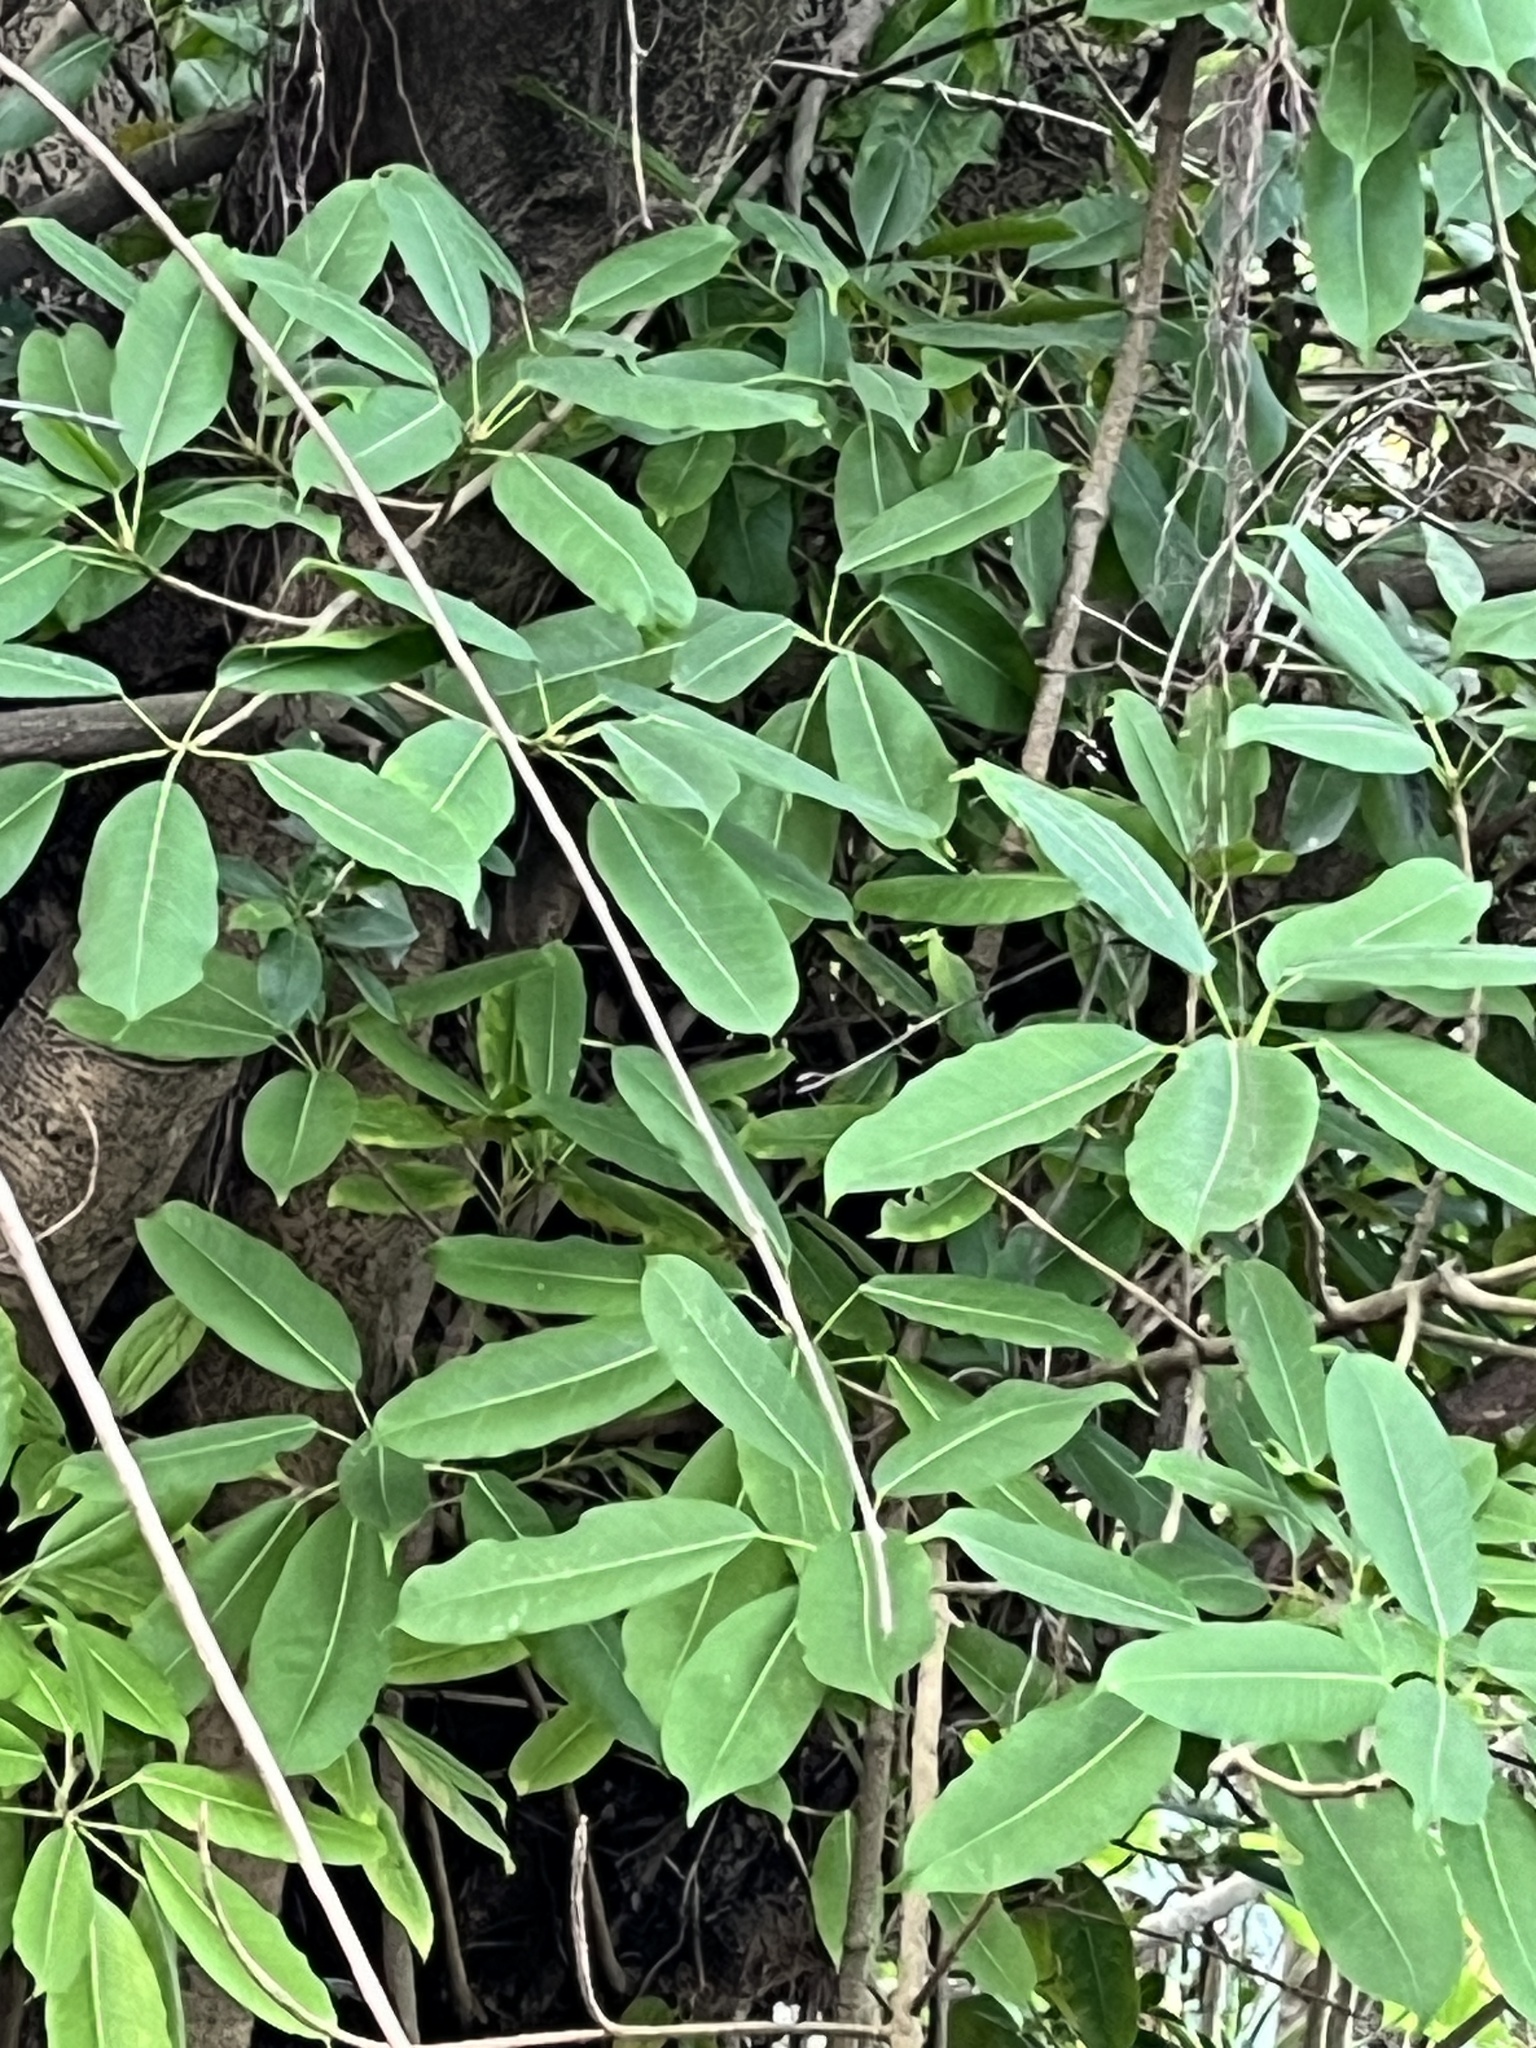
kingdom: Plantae
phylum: Tracheophyta
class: Magnoliopsida
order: Rosales
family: Moraceae
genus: Ficus
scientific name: Ficus subpisocarpa
